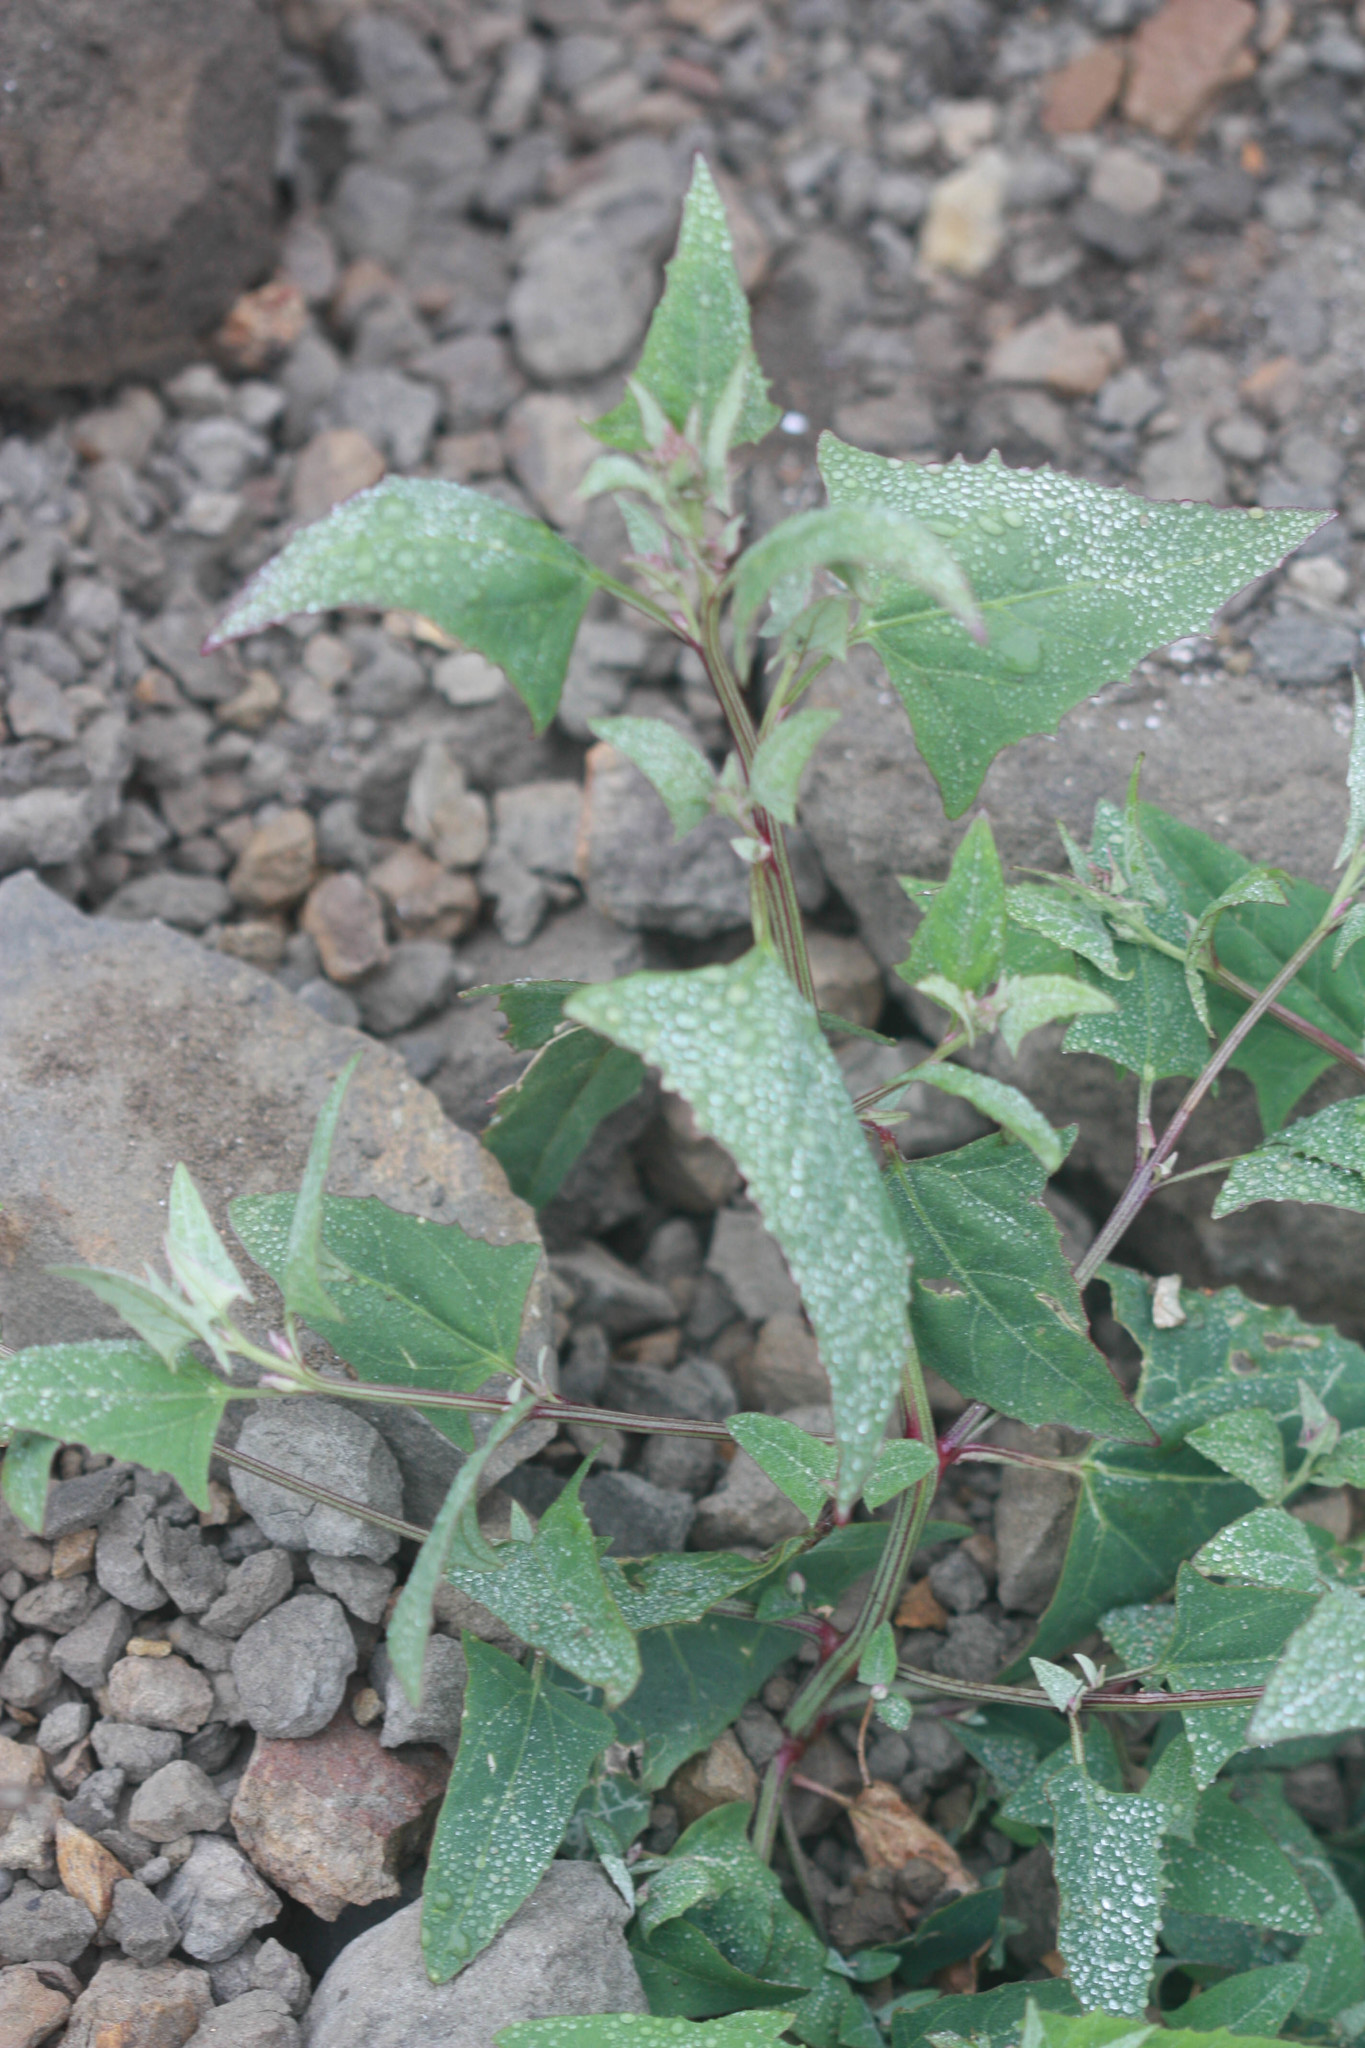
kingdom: Plantae
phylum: Tracheophyta
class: Magnoliopsida
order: Caryophyllales
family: Amaranthaceae
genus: Atriplex
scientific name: Atriplex prostrata
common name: Spear-leaved orache
